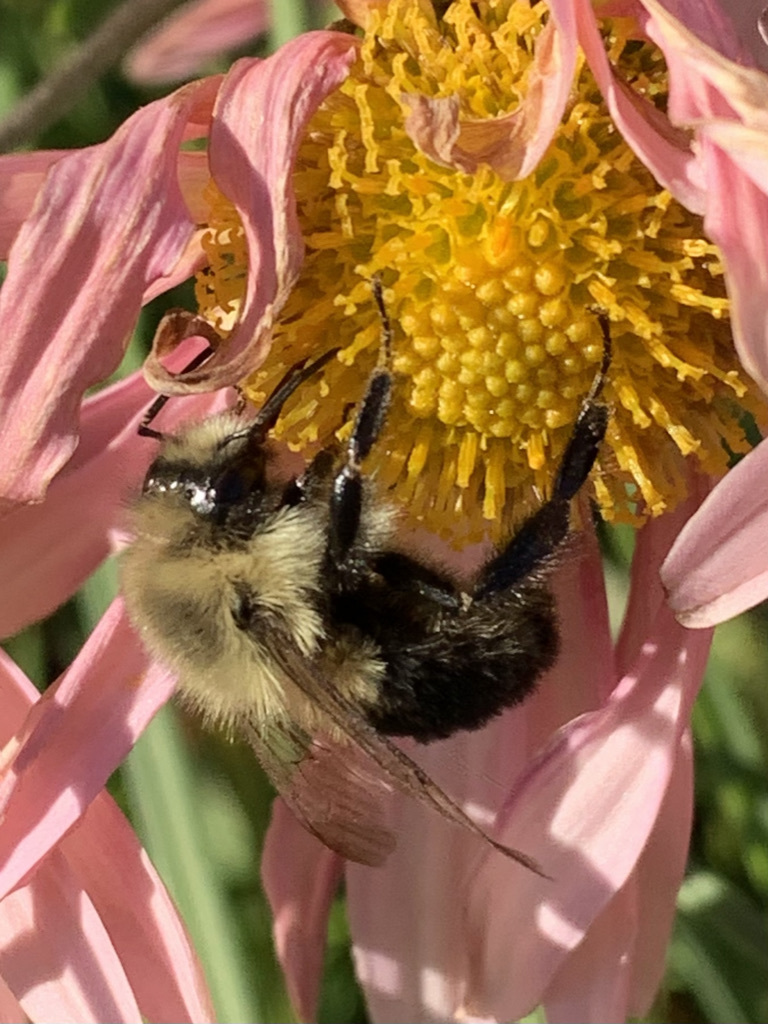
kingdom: Animalia
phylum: Arthropoda
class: Insecta
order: Hymenoptera
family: Apidae
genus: Bombus
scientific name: Bombus impatiens
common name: Common eastern bumble bee
